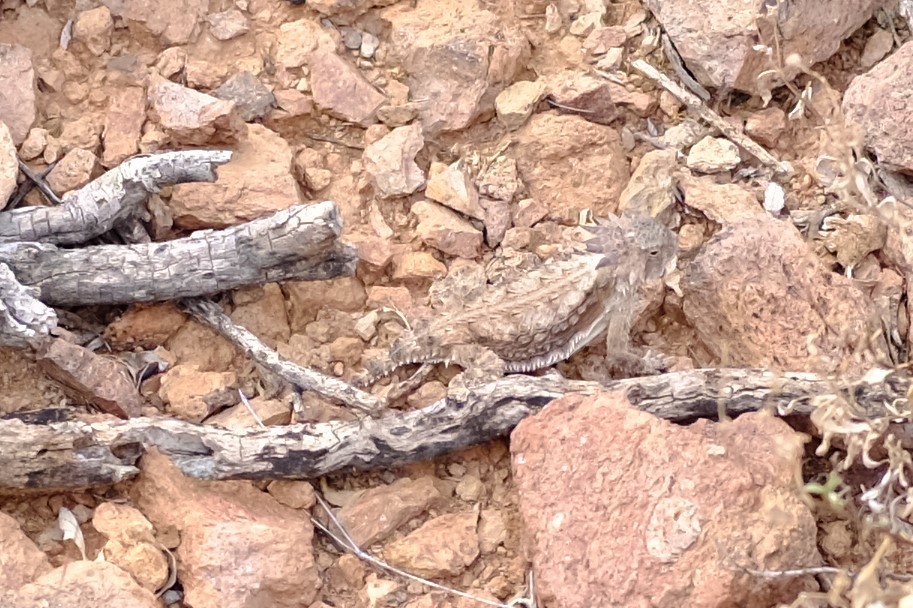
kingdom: Animalia
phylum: Chordata
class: Squamata
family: Phrynosomatidae
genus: Phrynosoma
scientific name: Phrynosoma solare
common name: Regal horned lizard
